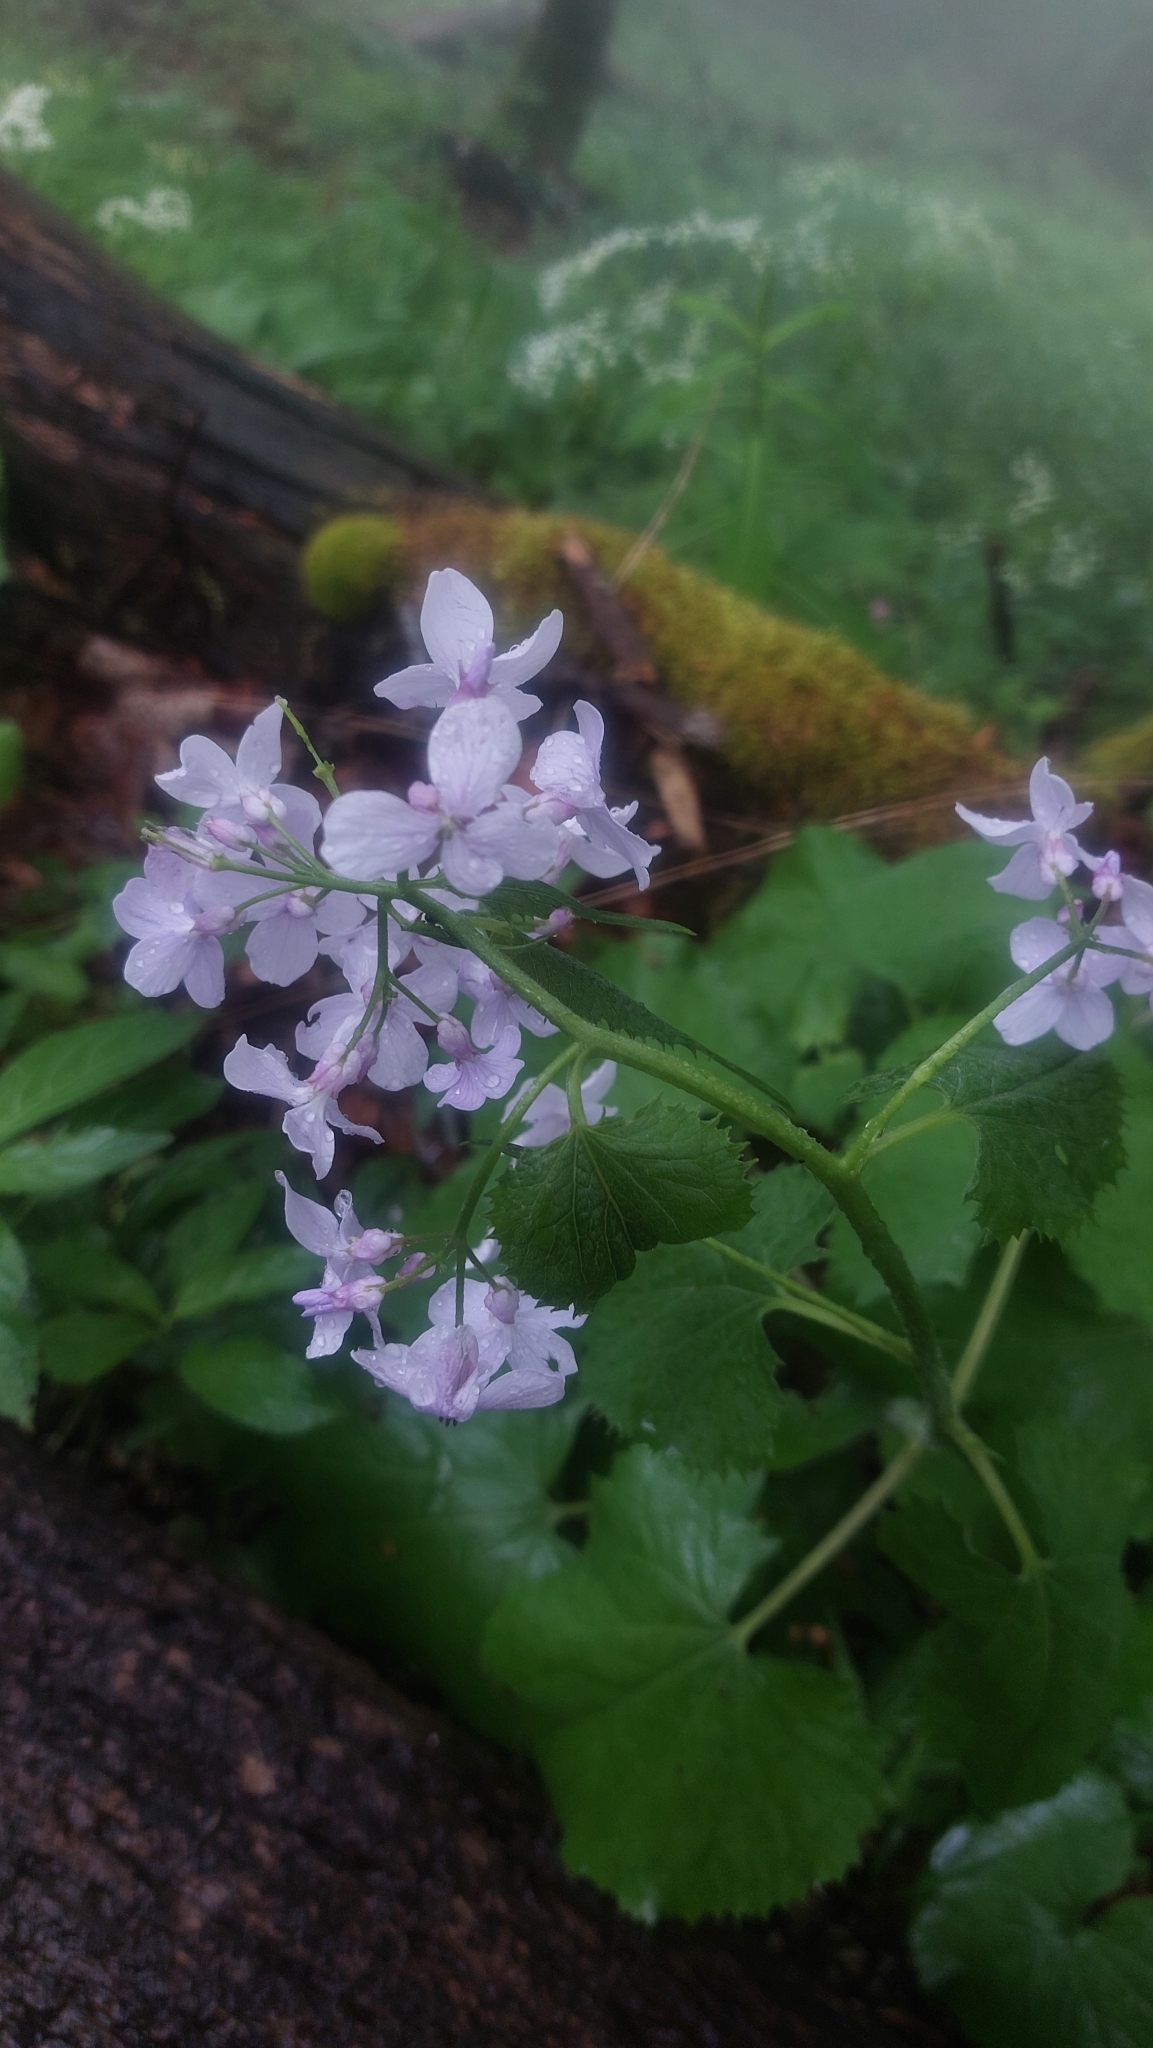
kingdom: Plantae
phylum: Tracheophyta
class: Magnoliopsida
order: Brassicales
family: Brassicaceae
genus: Lunaria
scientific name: Lunaria rediviva
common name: Perennial honesty
